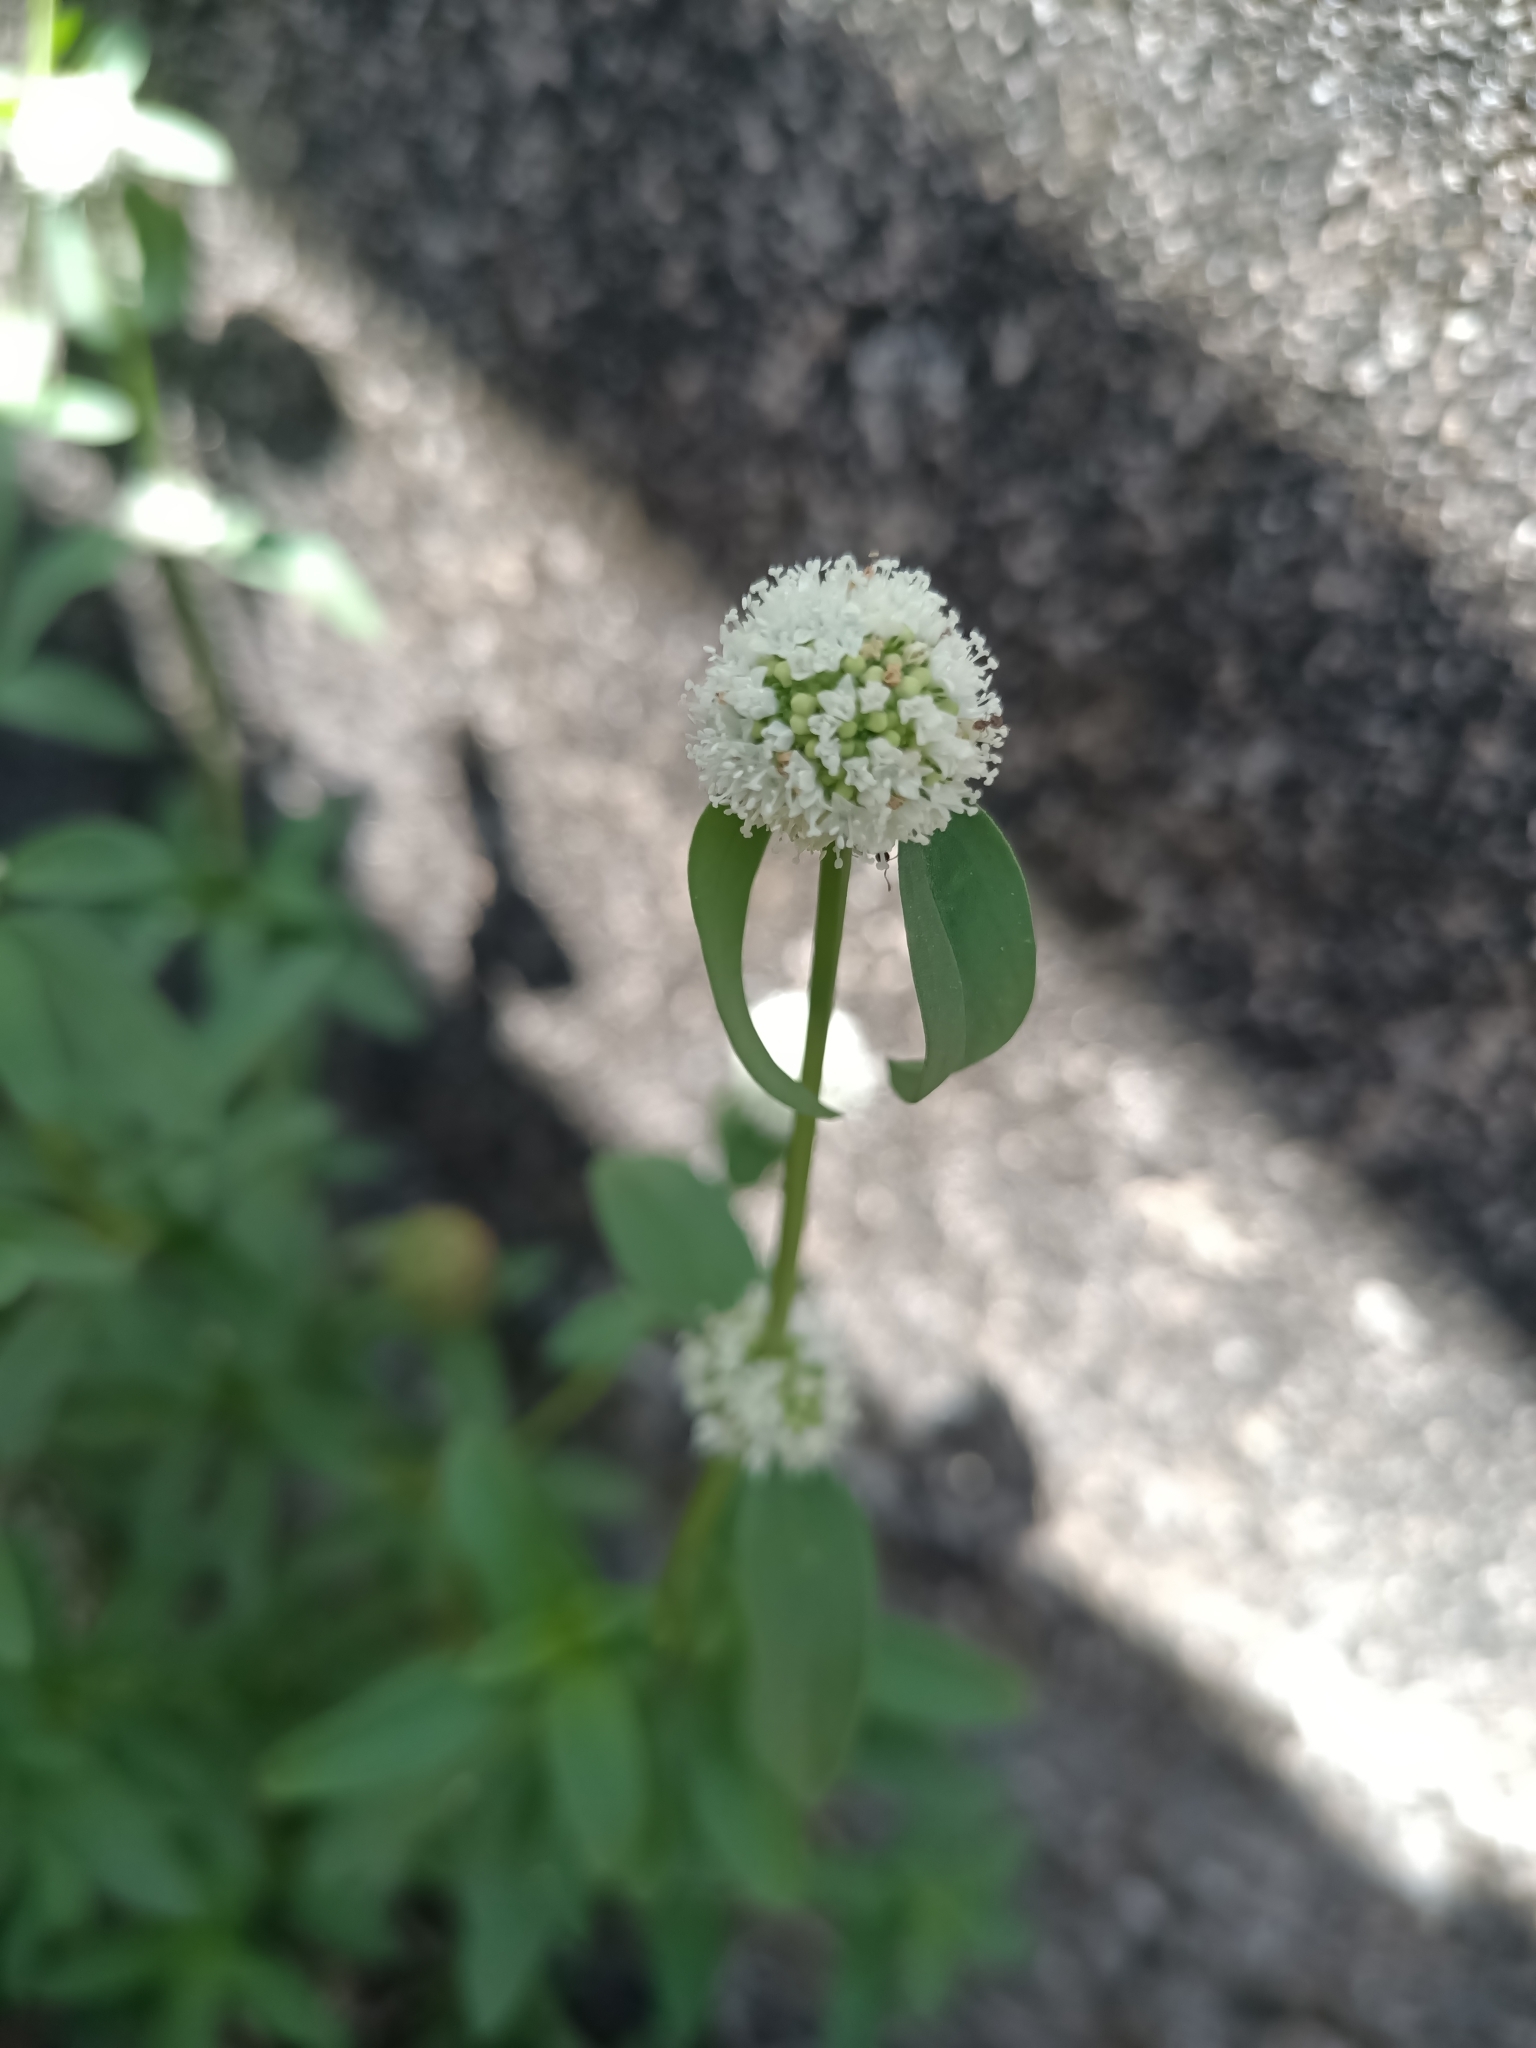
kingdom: Plantae
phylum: Tracheophyta
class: Magnoliopsida
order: Gentianales
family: Rubiaceae
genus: Spermacoce
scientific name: Spermacoce verticillata
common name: Shrubby false buttonweed
